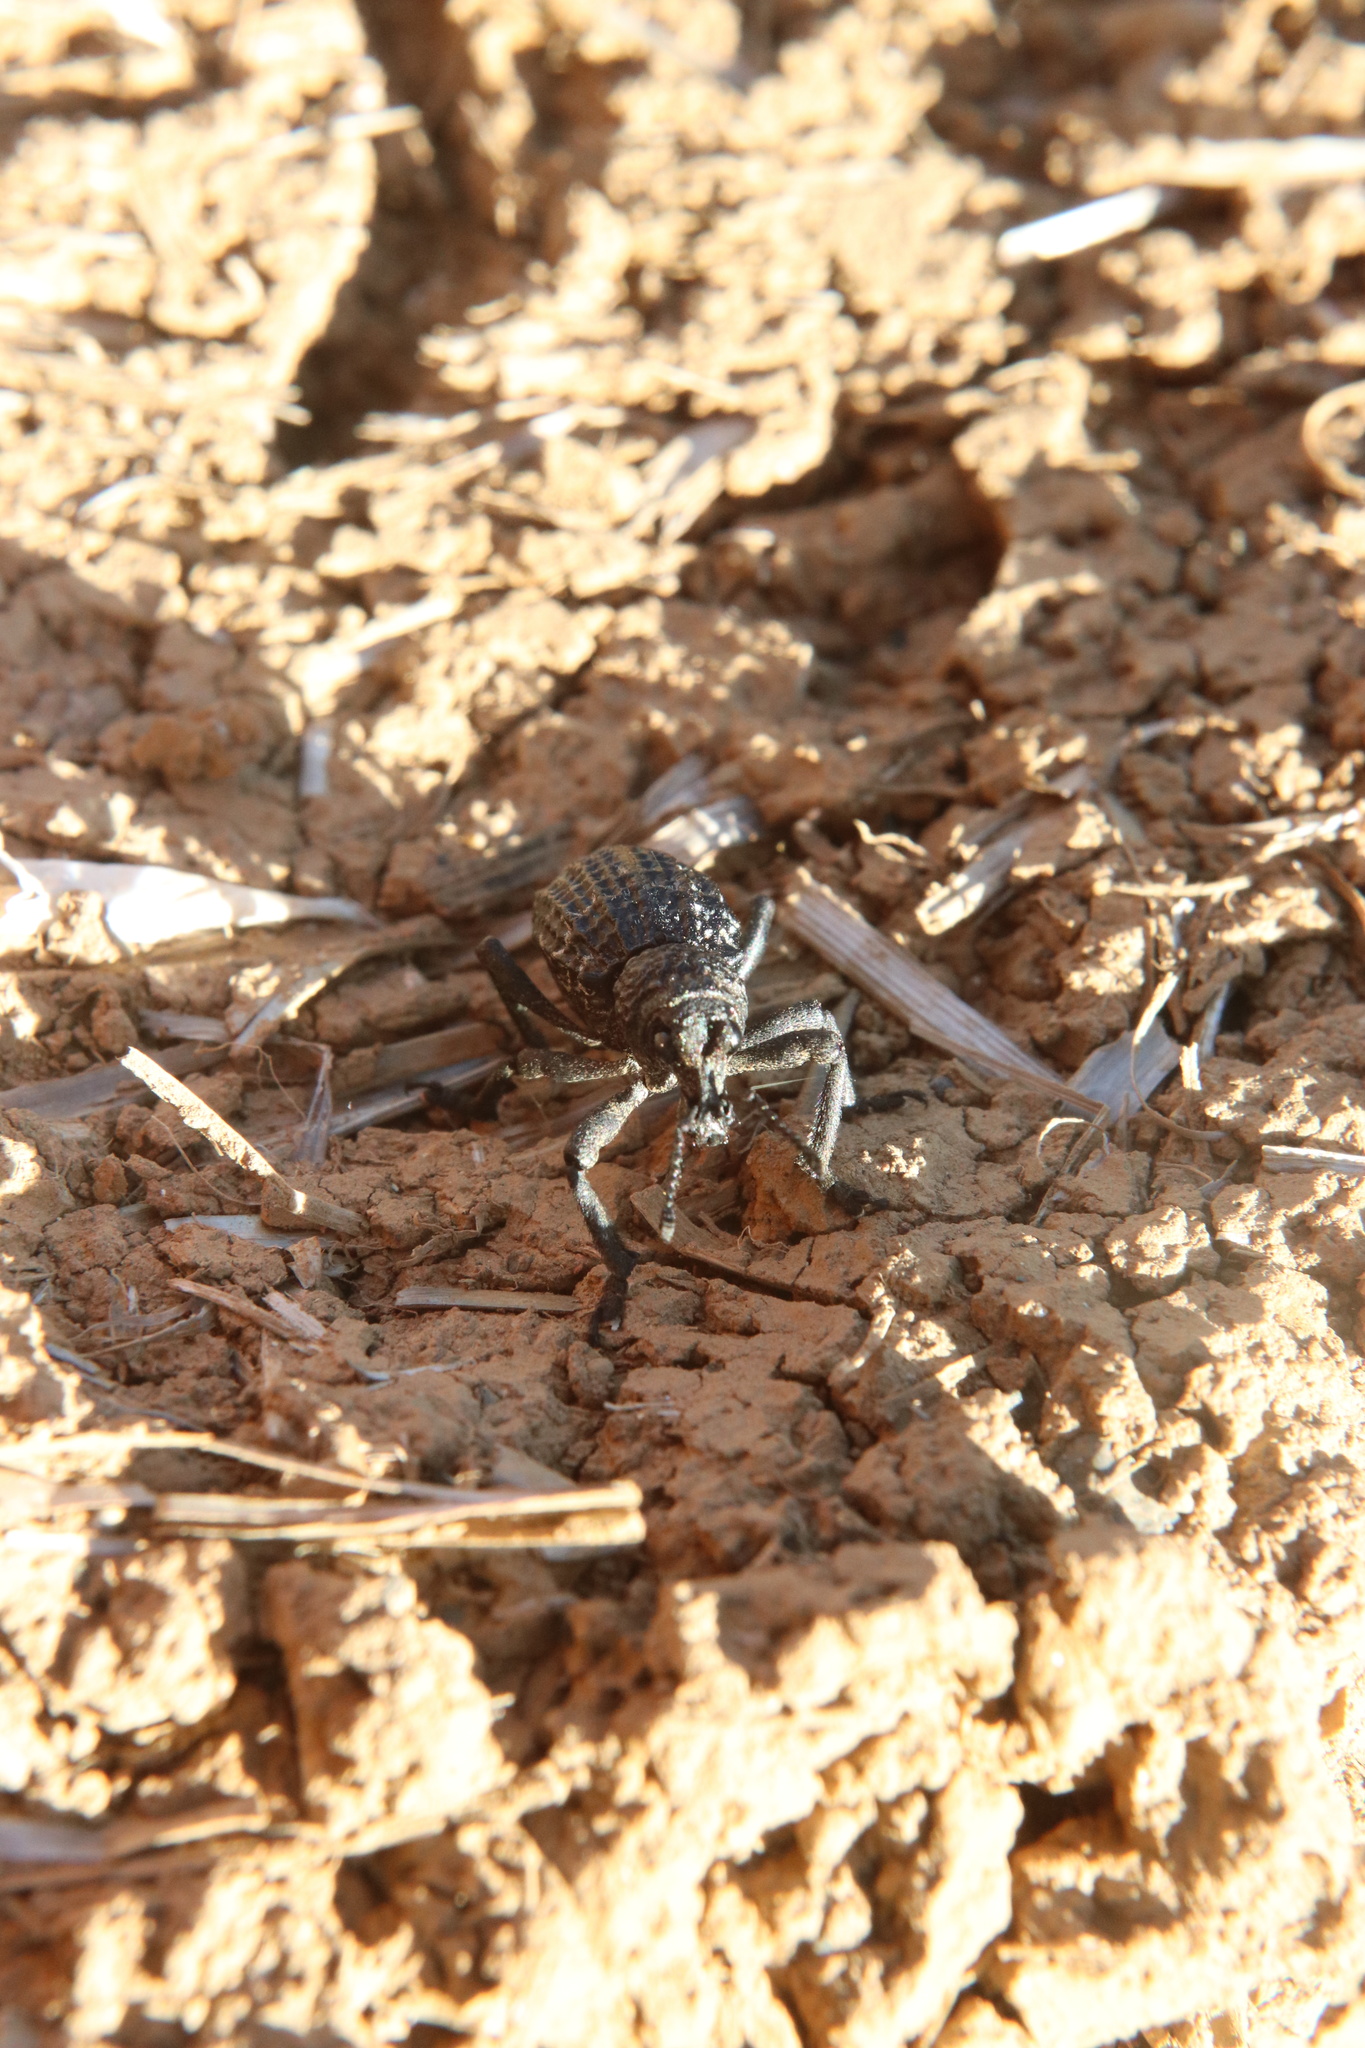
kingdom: Animalia
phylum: Arthropoda
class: Insecta
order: Coleoptera
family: Curculionidae
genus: Aegorhinus
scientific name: Aegorhinus superciliosus
